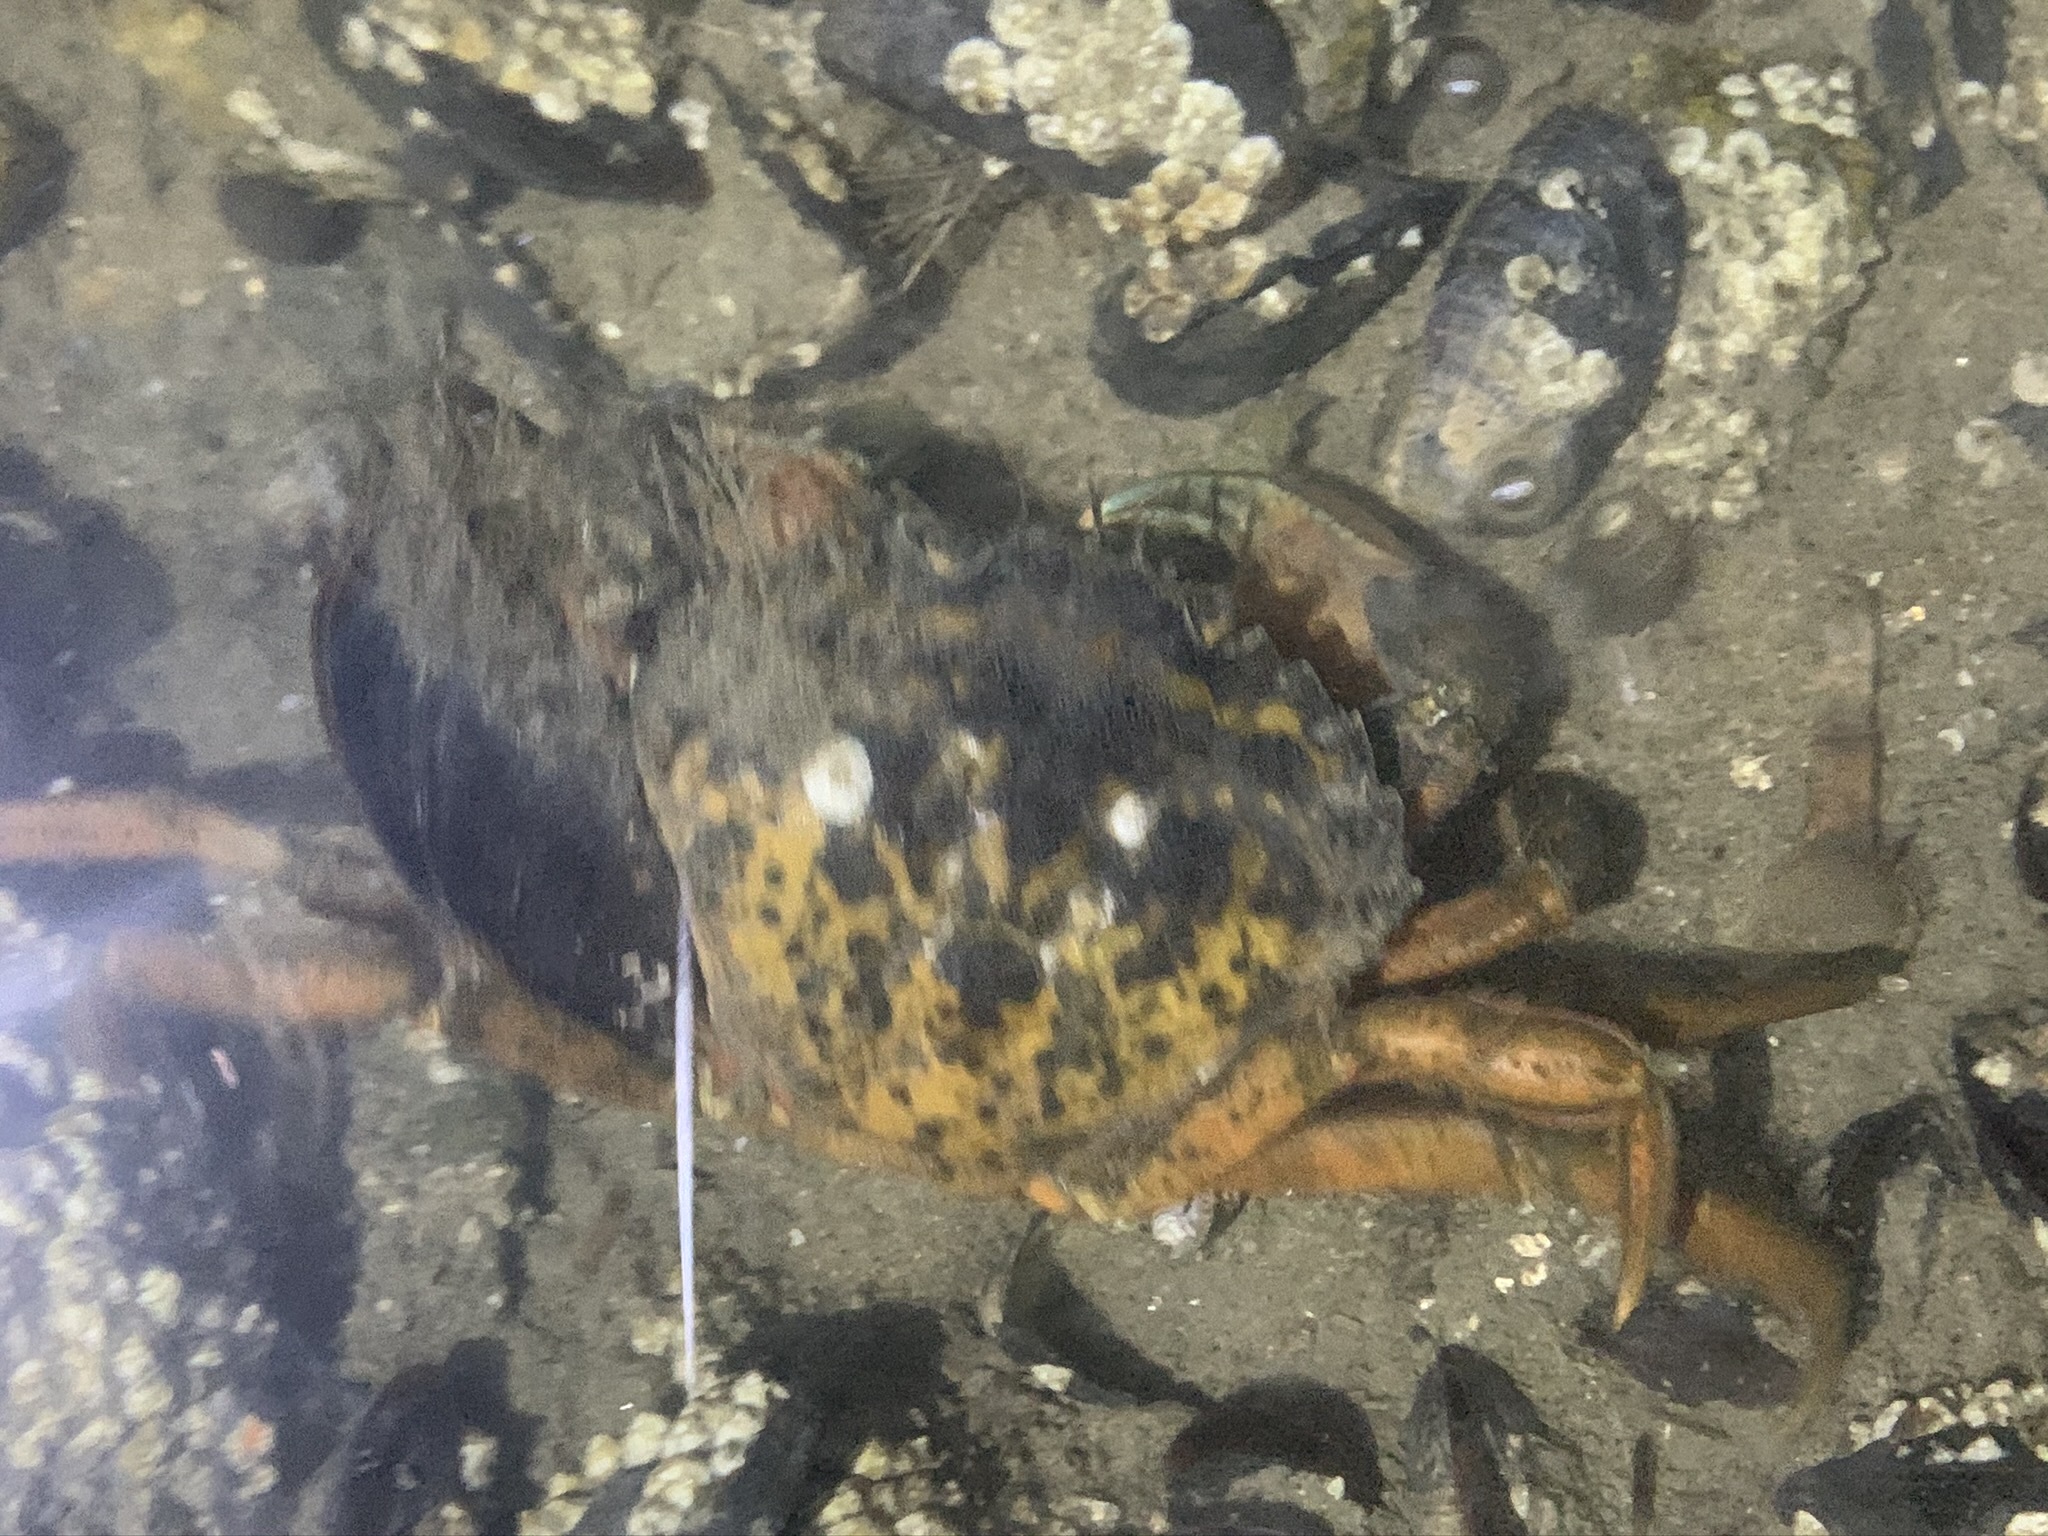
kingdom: Animalia
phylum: Arthropoda
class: Malacostraca
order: Decapoda
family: Carcinidae
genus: Carcinus
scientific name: Carcinus maenas
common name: European green crab
